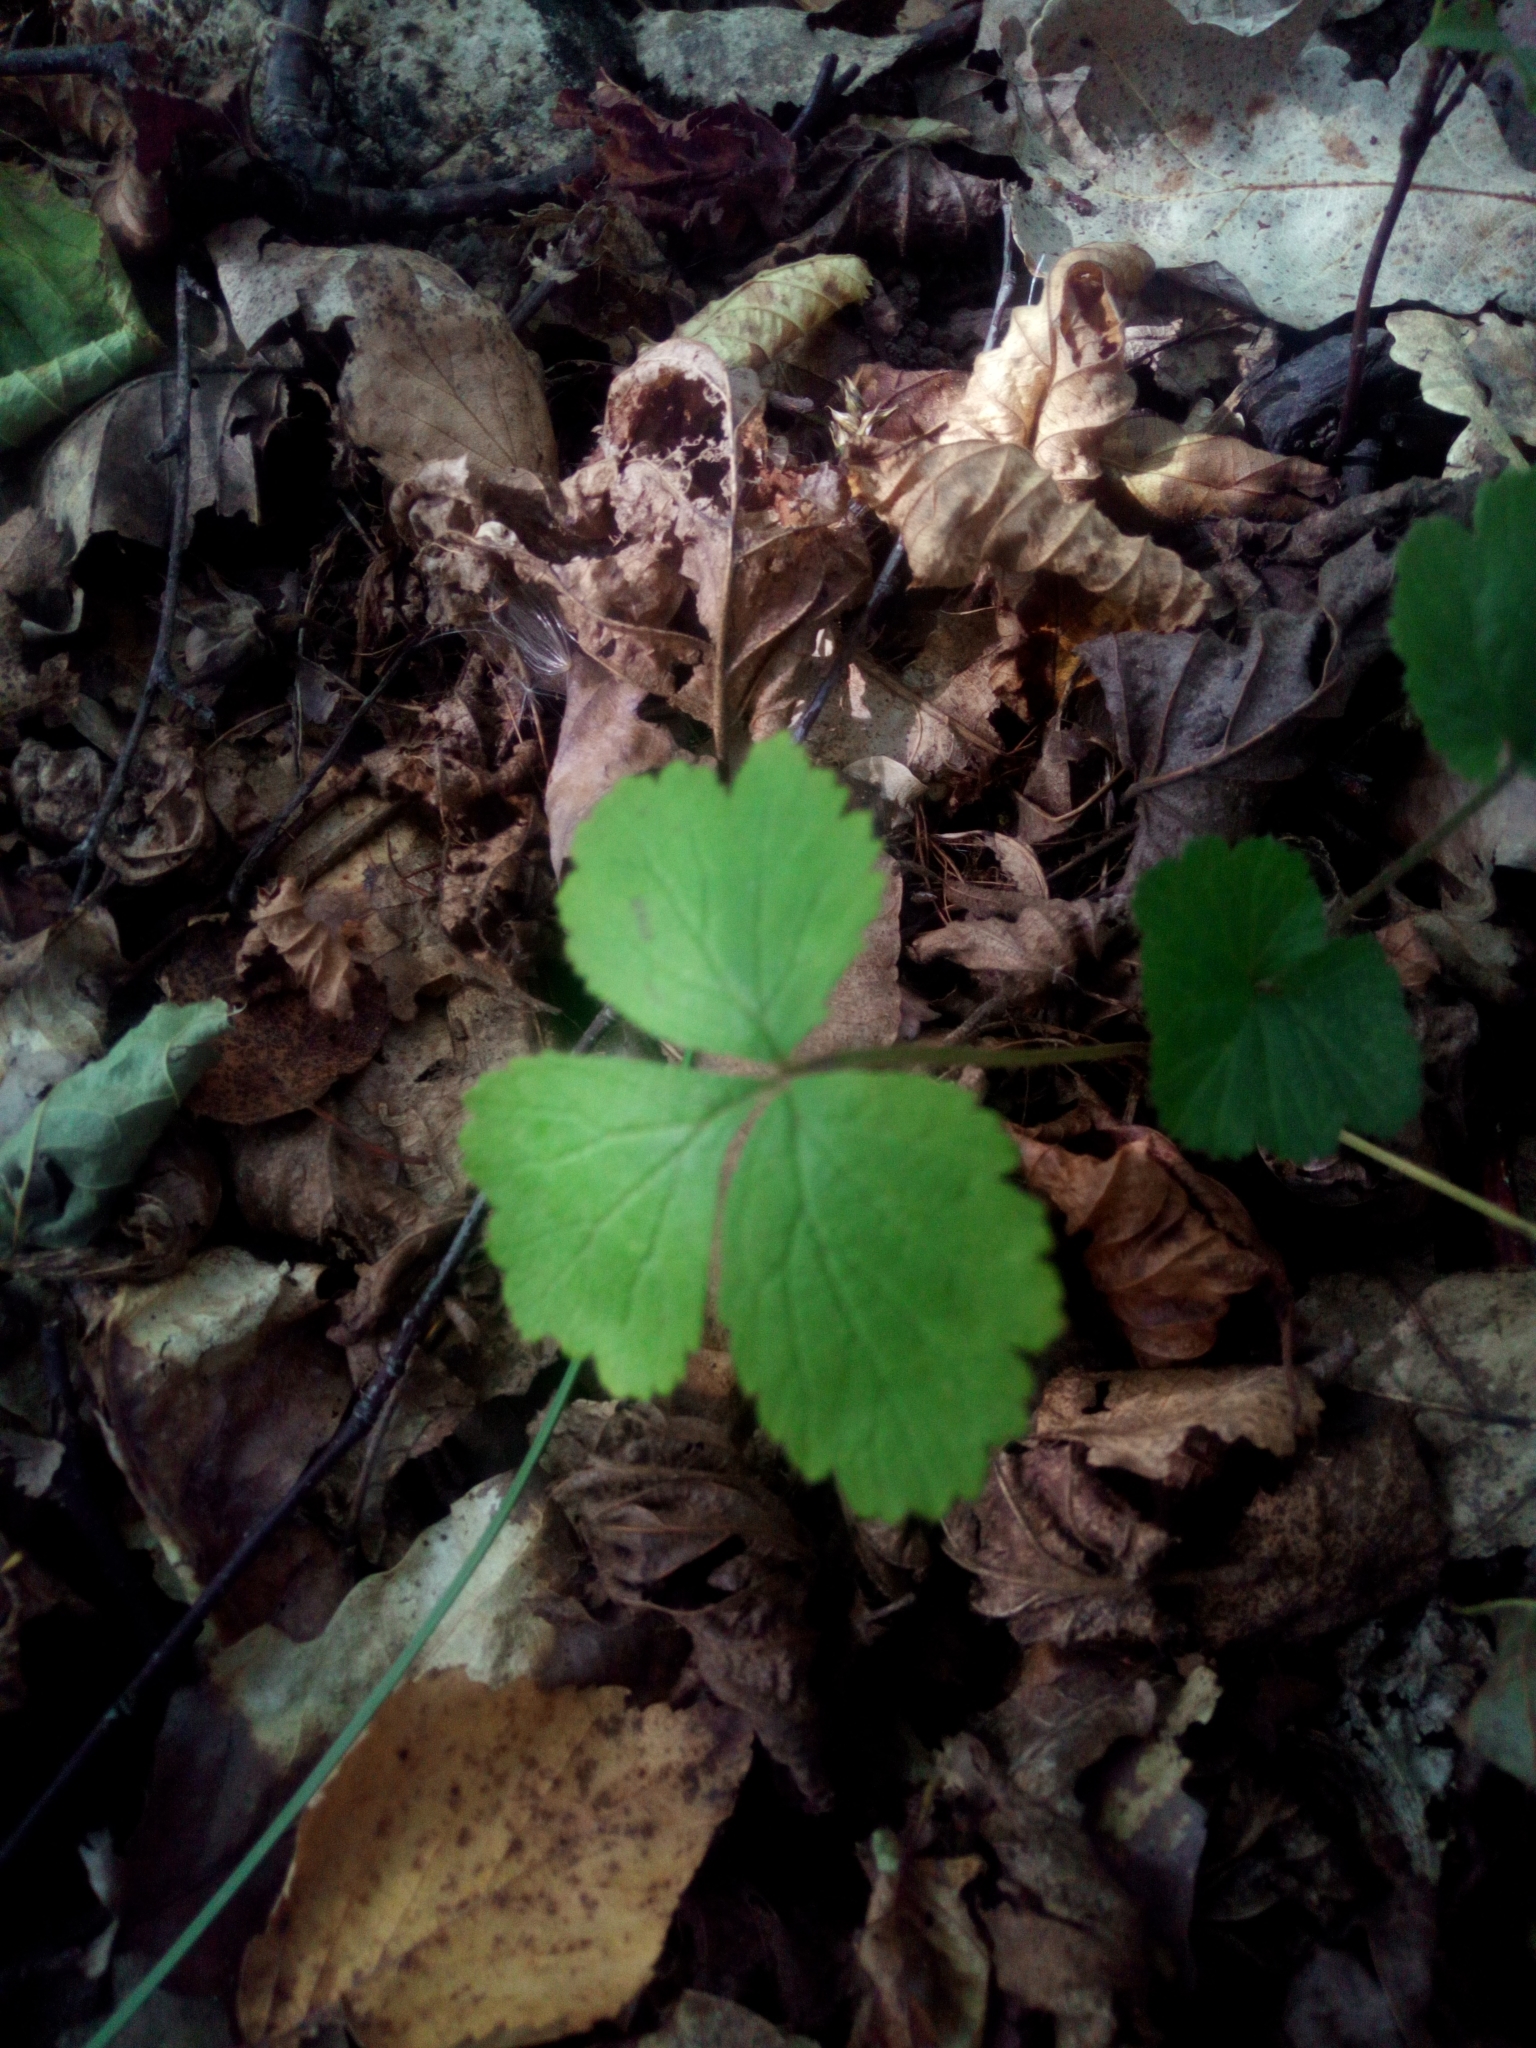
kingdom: Plantae
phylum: Tracheophyta
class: Magnoliopsida
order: Rosales
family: Rosaceae
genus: Geum
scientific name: Geum
